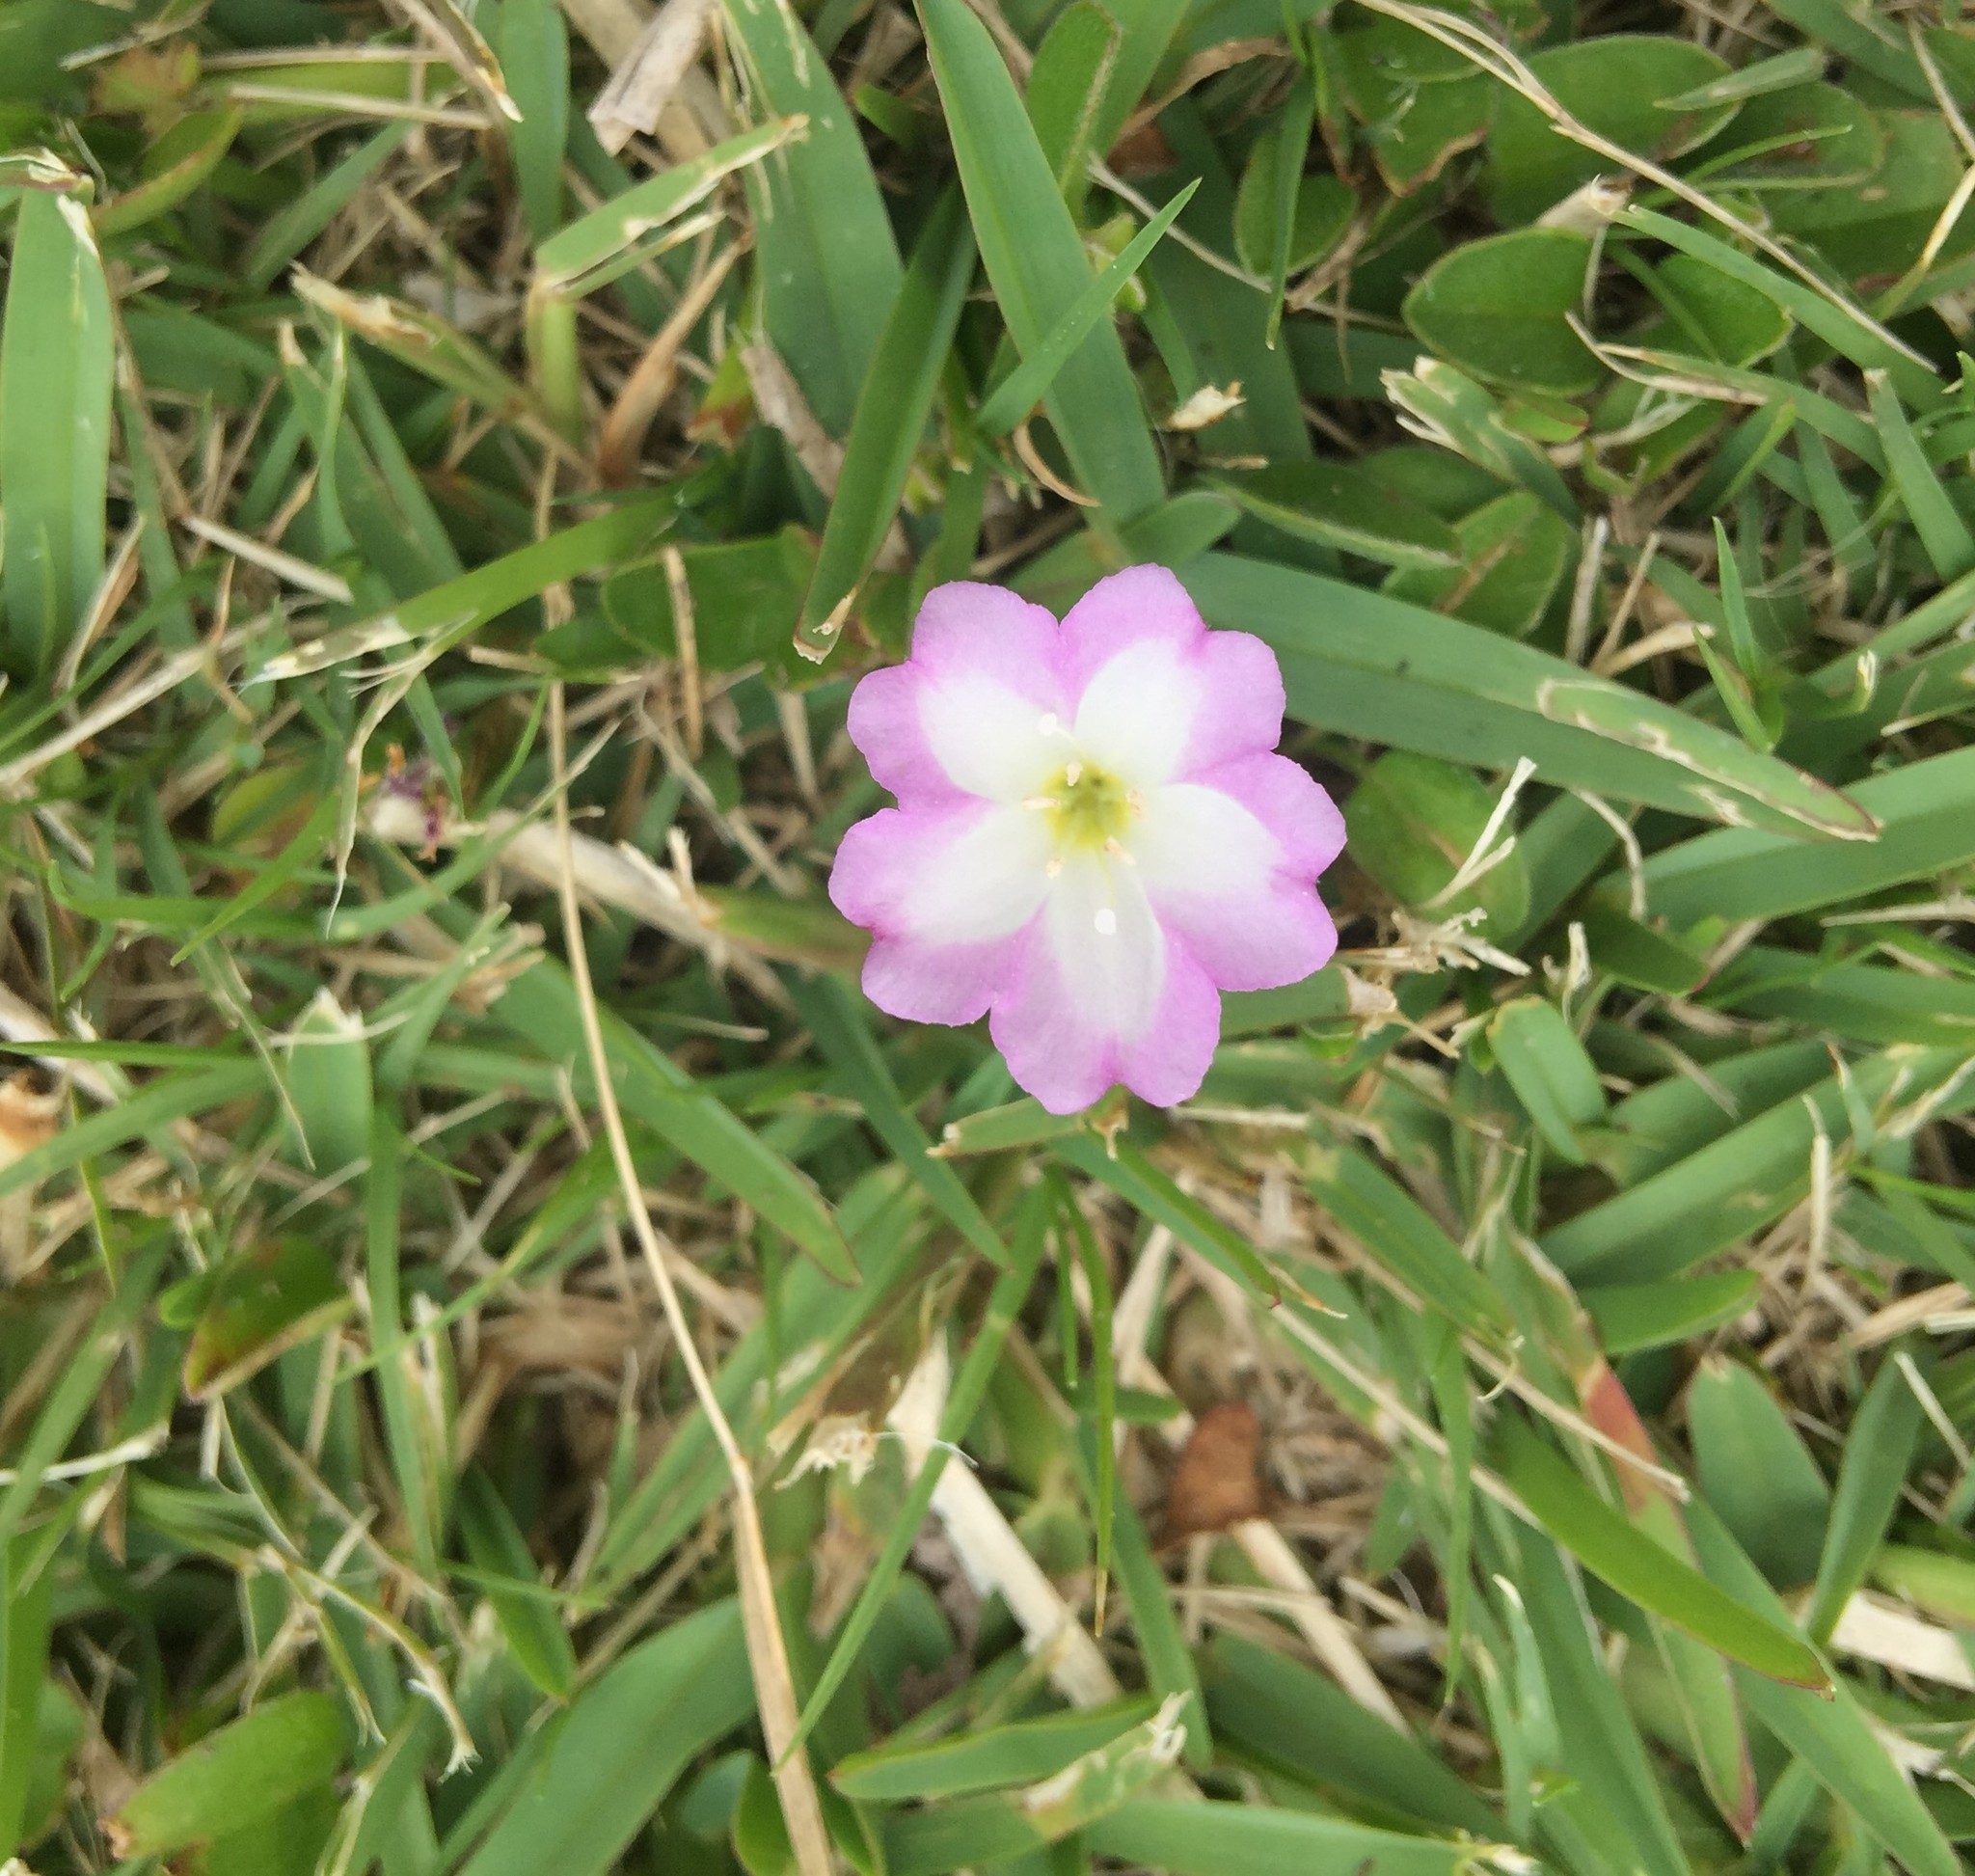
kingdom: Plantae
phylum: Tracheophyta
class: Magnoliopsida
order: Solanales
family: Convolvulaceae
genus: Falkia
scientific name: Falkia repens
